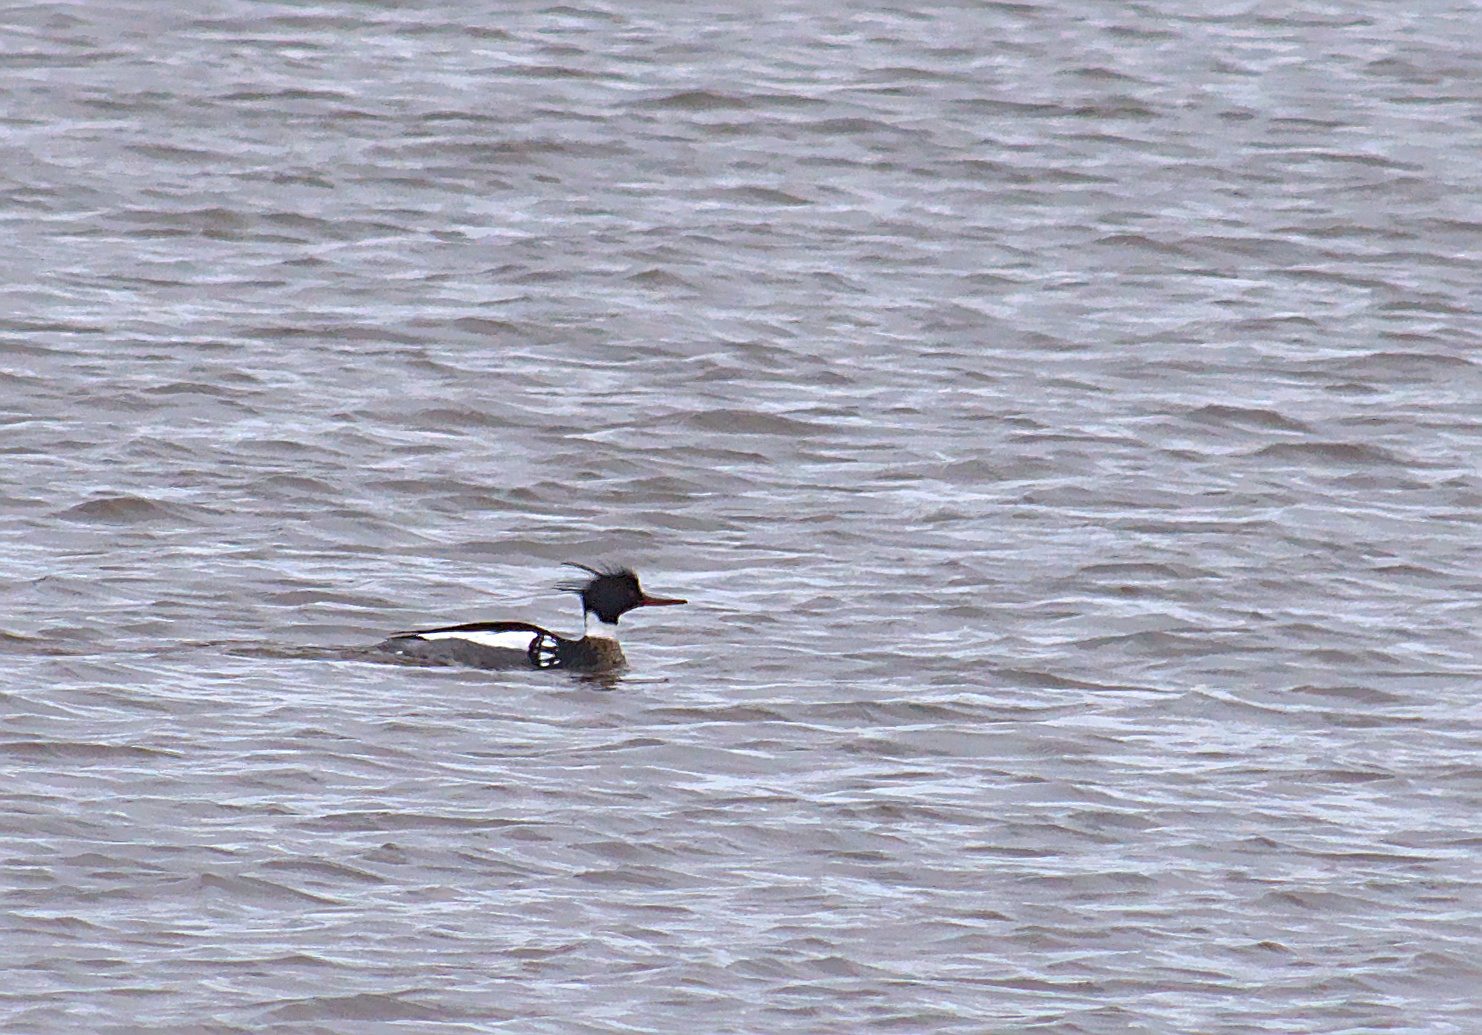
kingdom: Animalia
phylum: Chordata
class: Aves
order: Anseriformes
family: Anatidae
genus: Mergus
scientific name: Mergus serrator
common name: Red-breasted merganser
